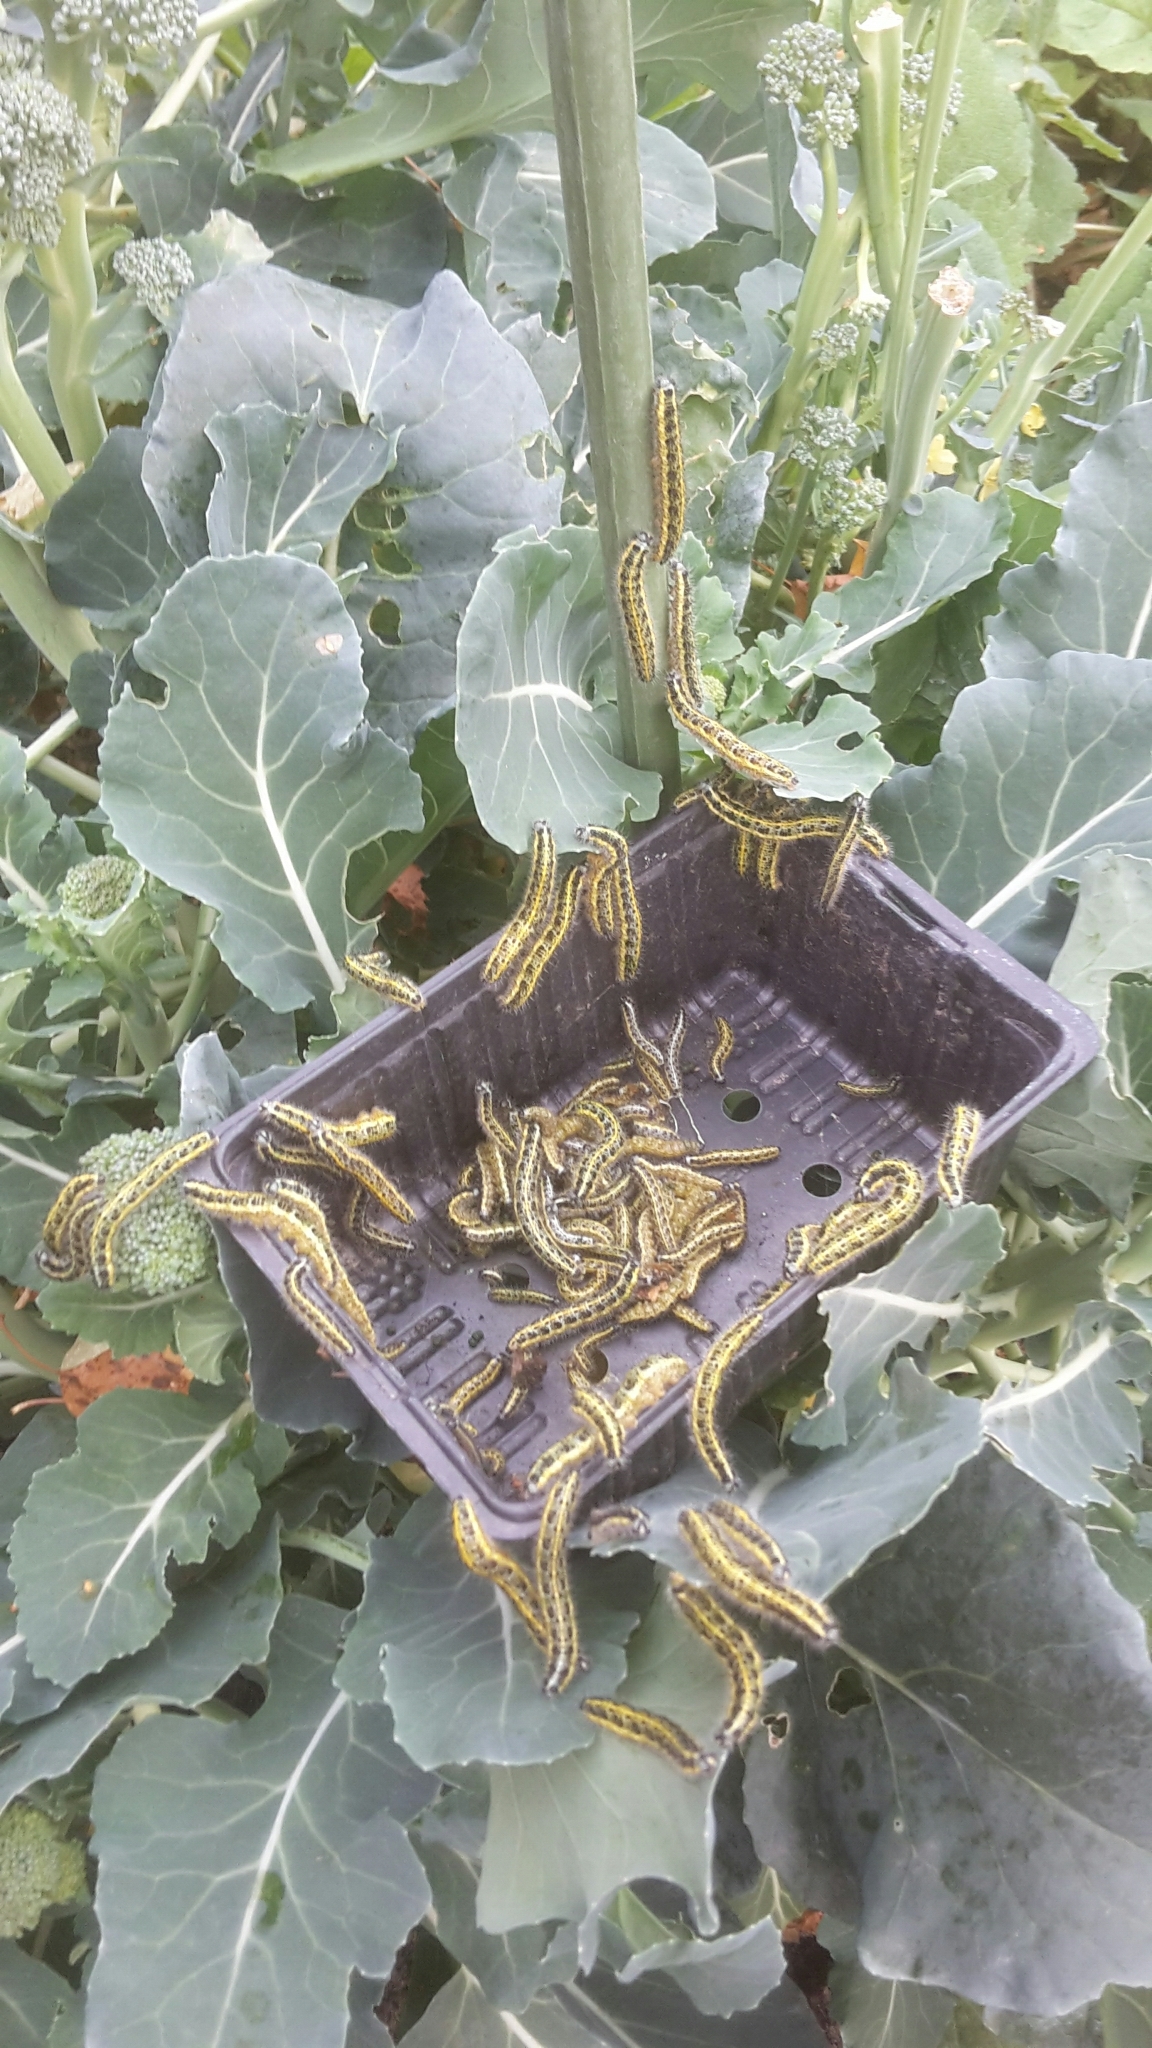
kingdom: Animalia
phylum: Arthropoda
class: Insecta
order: Lepidoptera
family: Pieridae
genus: Pieris
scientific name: Pieris brassicae
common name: Large white
